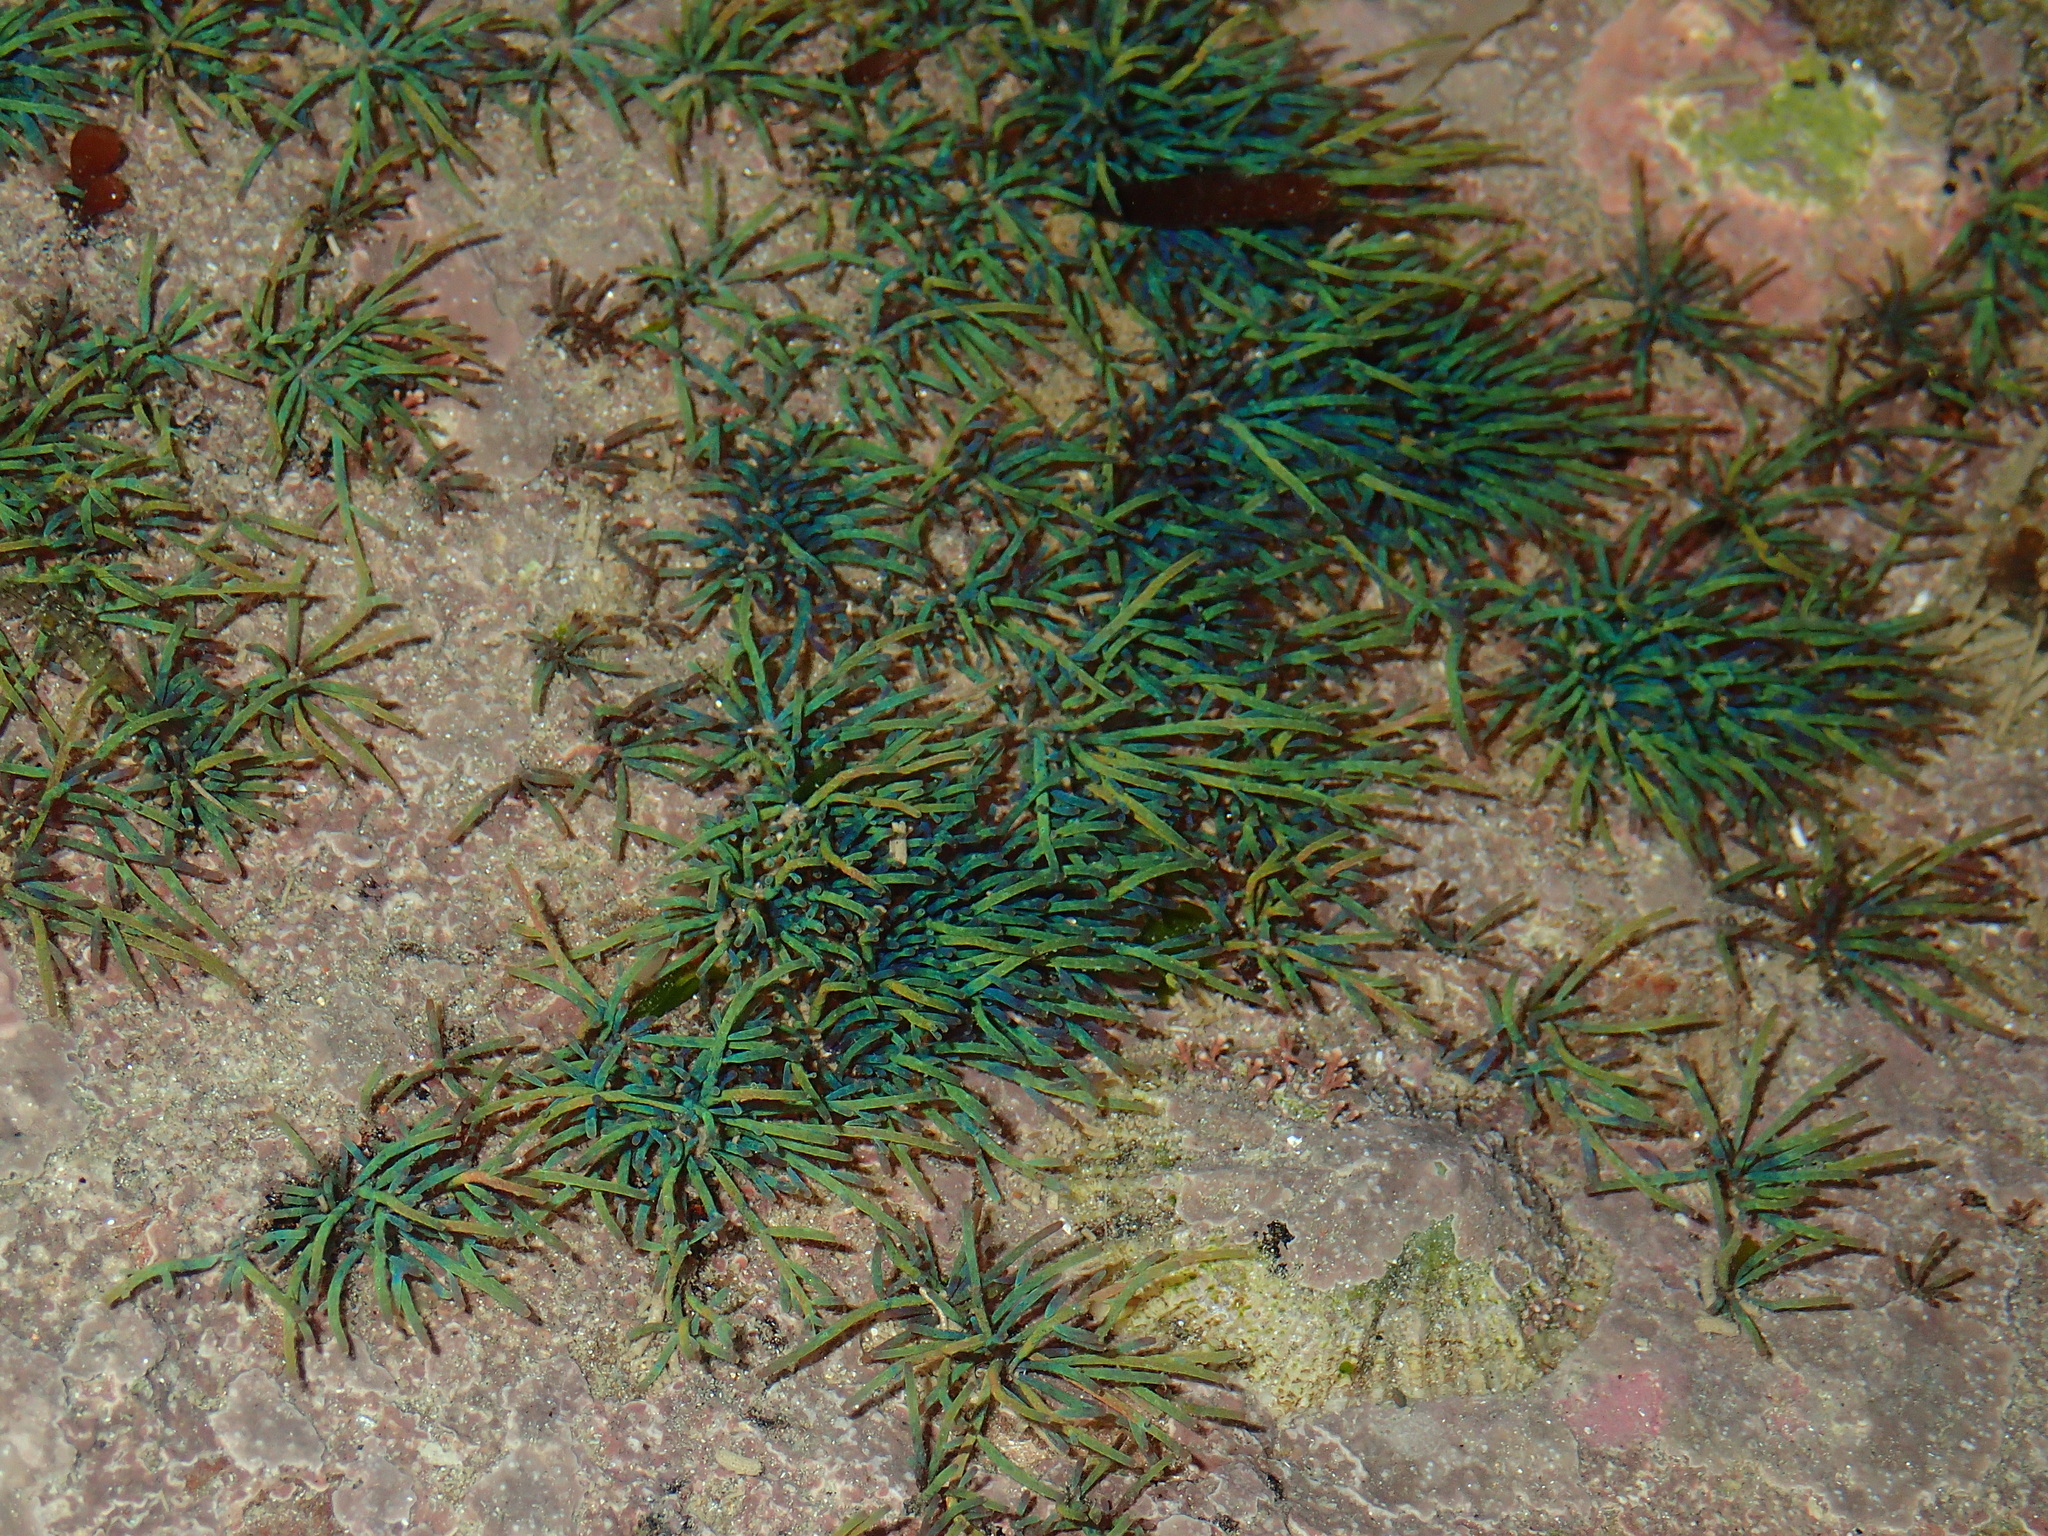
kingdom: Plantae
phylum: Rhodophyta
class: Florideophyceae
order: Ceramiales
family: Rhodomelaceae
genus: Chondria
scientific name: Chondria coerulescens
